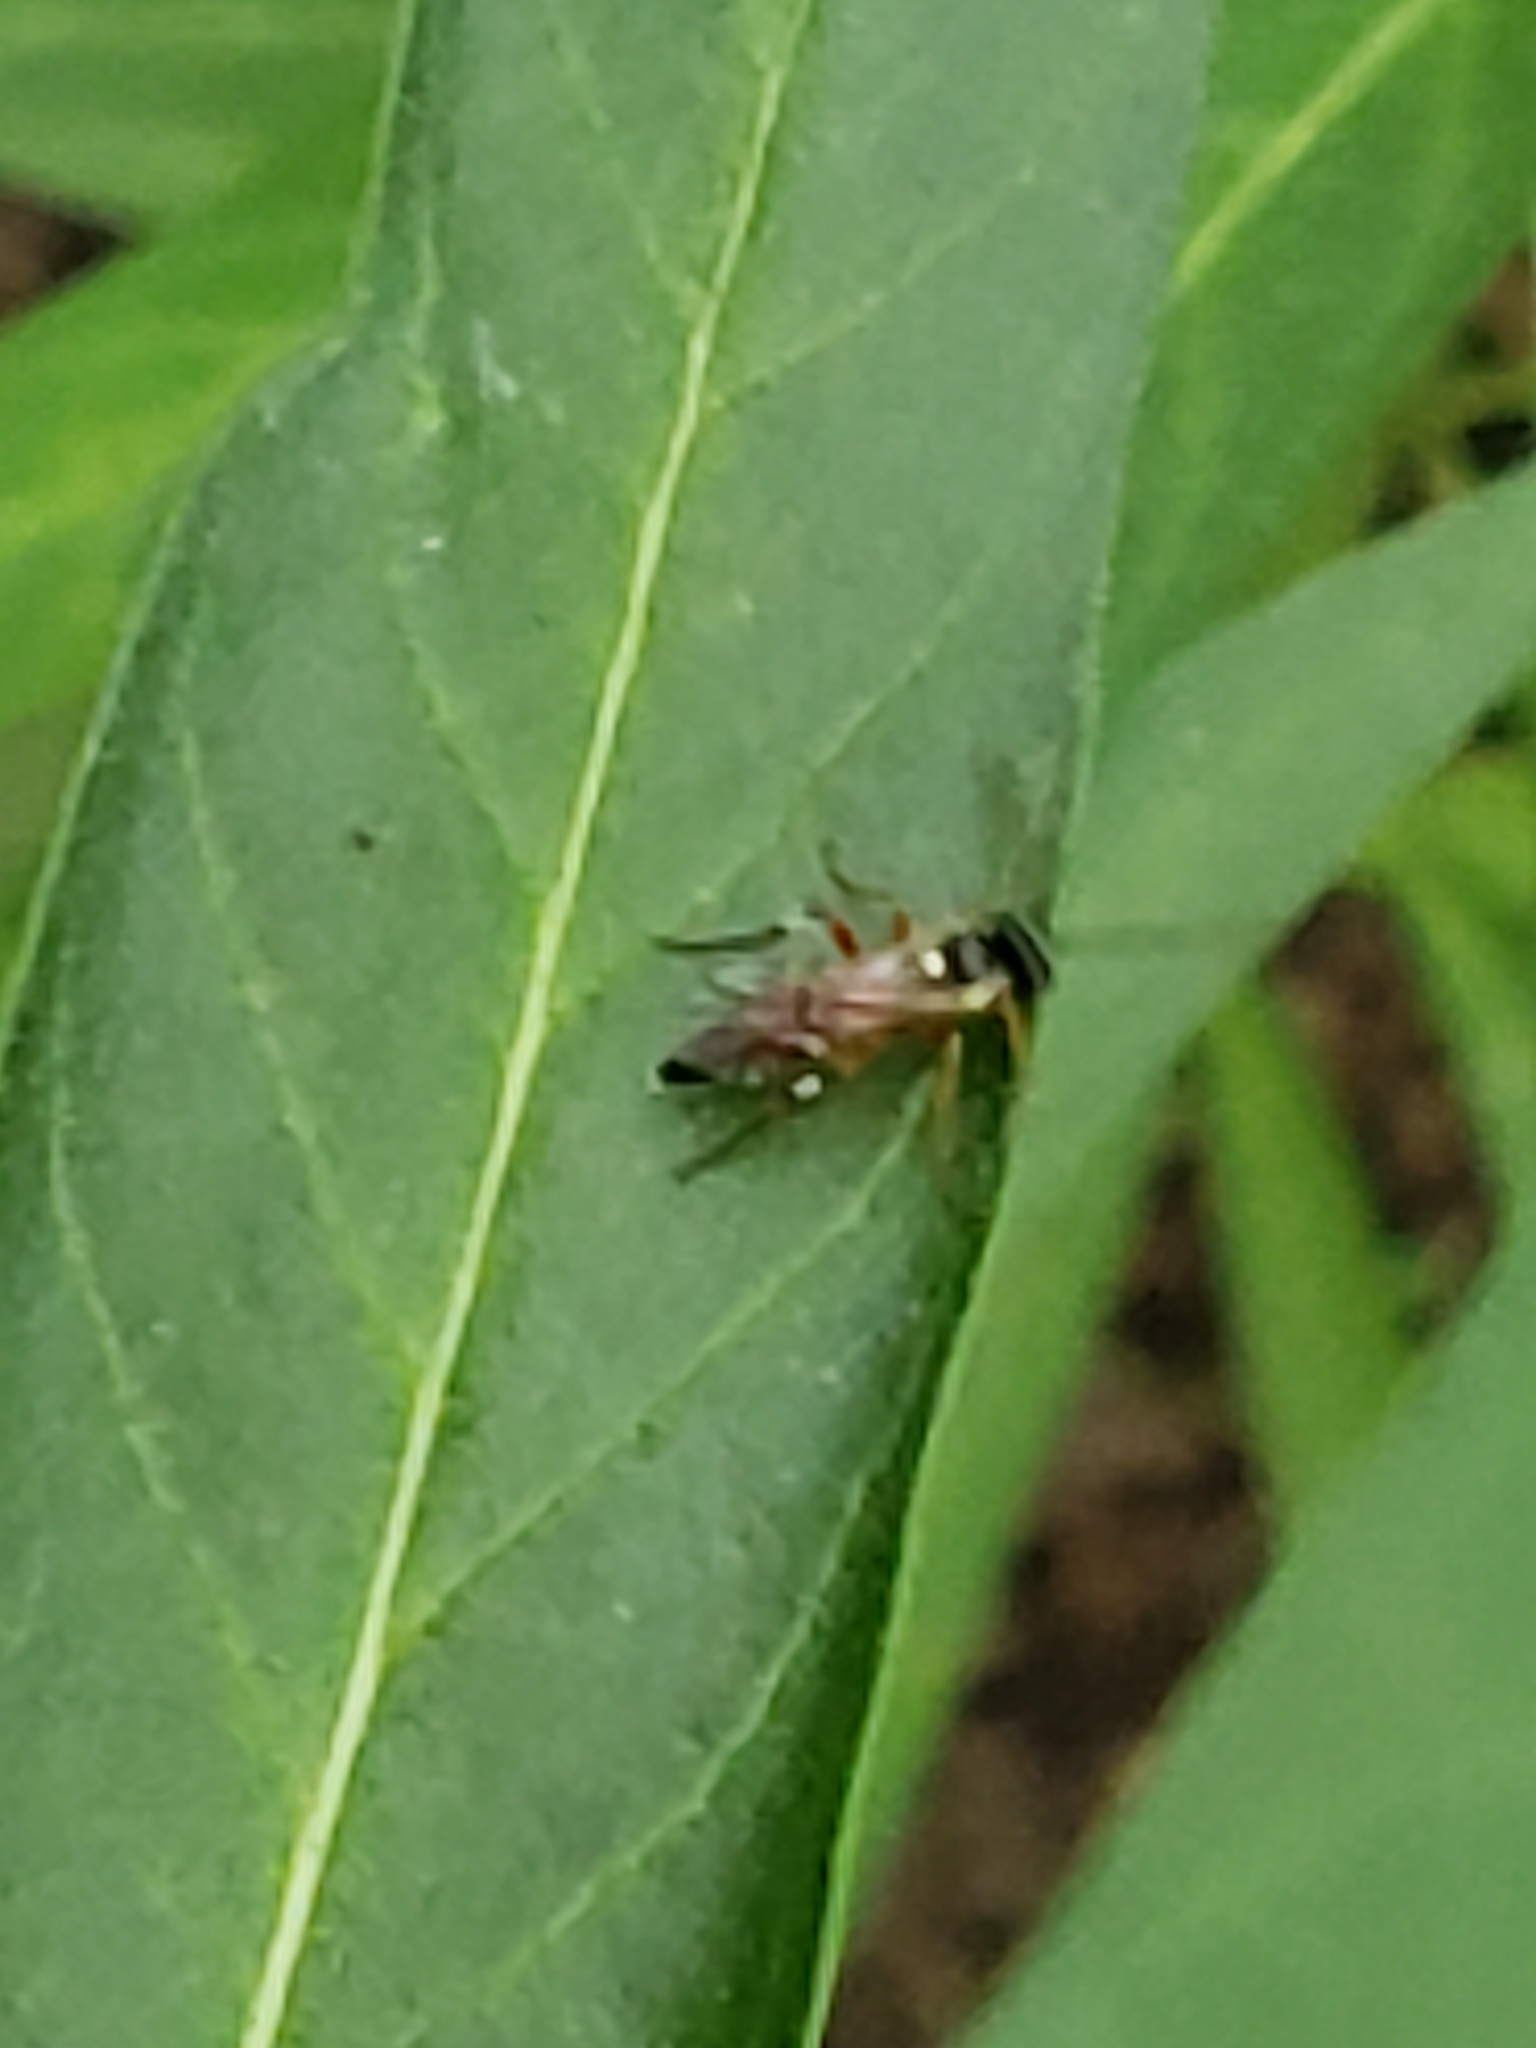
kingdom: Animalia
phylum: Arthropoda
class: Insecta
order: Hymenoptera
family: Ichneumonidae
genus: Diplazon
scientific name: Diplazon laetatorius
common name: Parasitoid wasp
